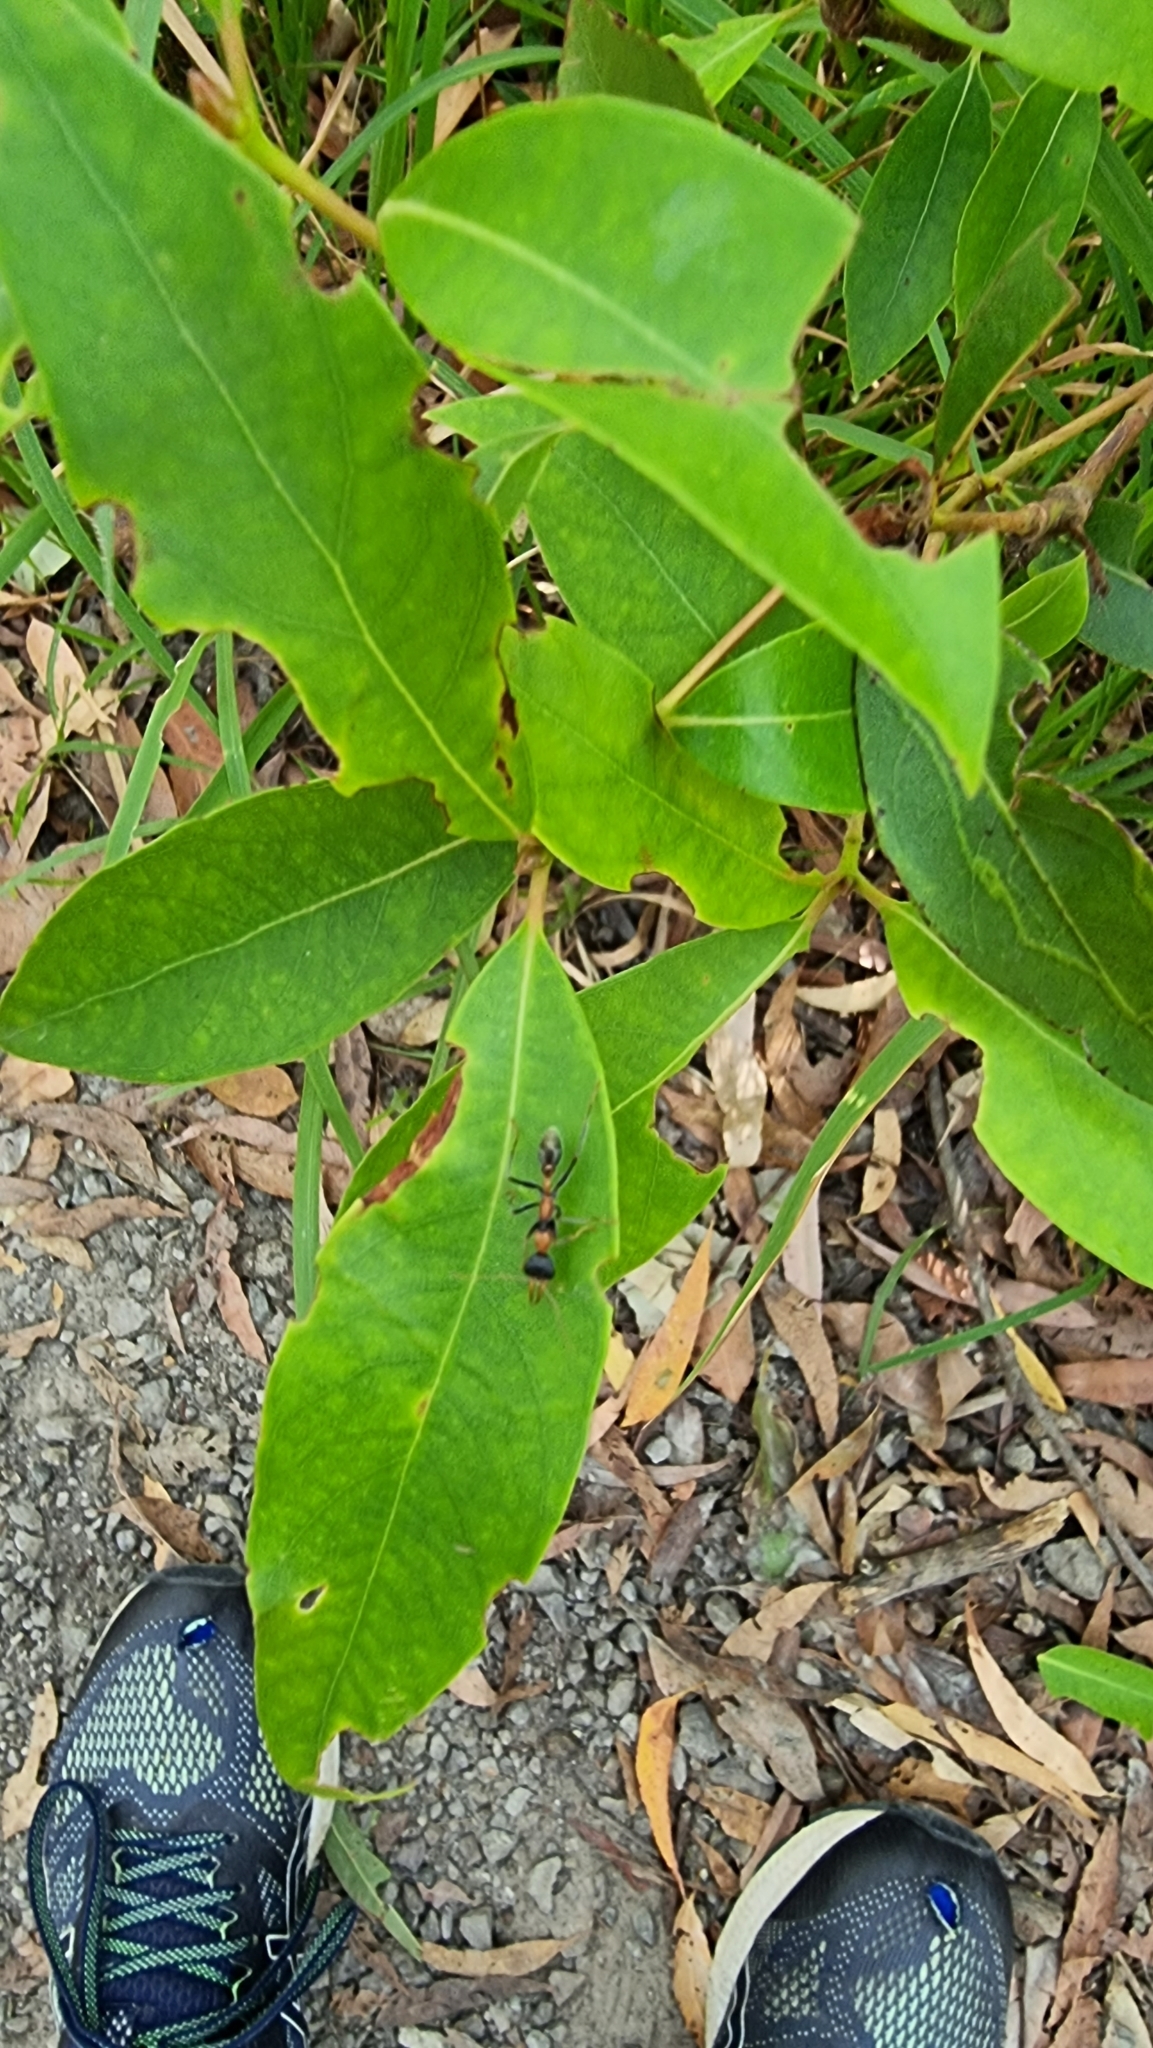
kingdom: Animalia
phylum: Arthropoda
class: Insecta
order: Hymenoptera
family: Formicidae
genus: Myrmecia
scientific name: Myrmecia nigrocincta
